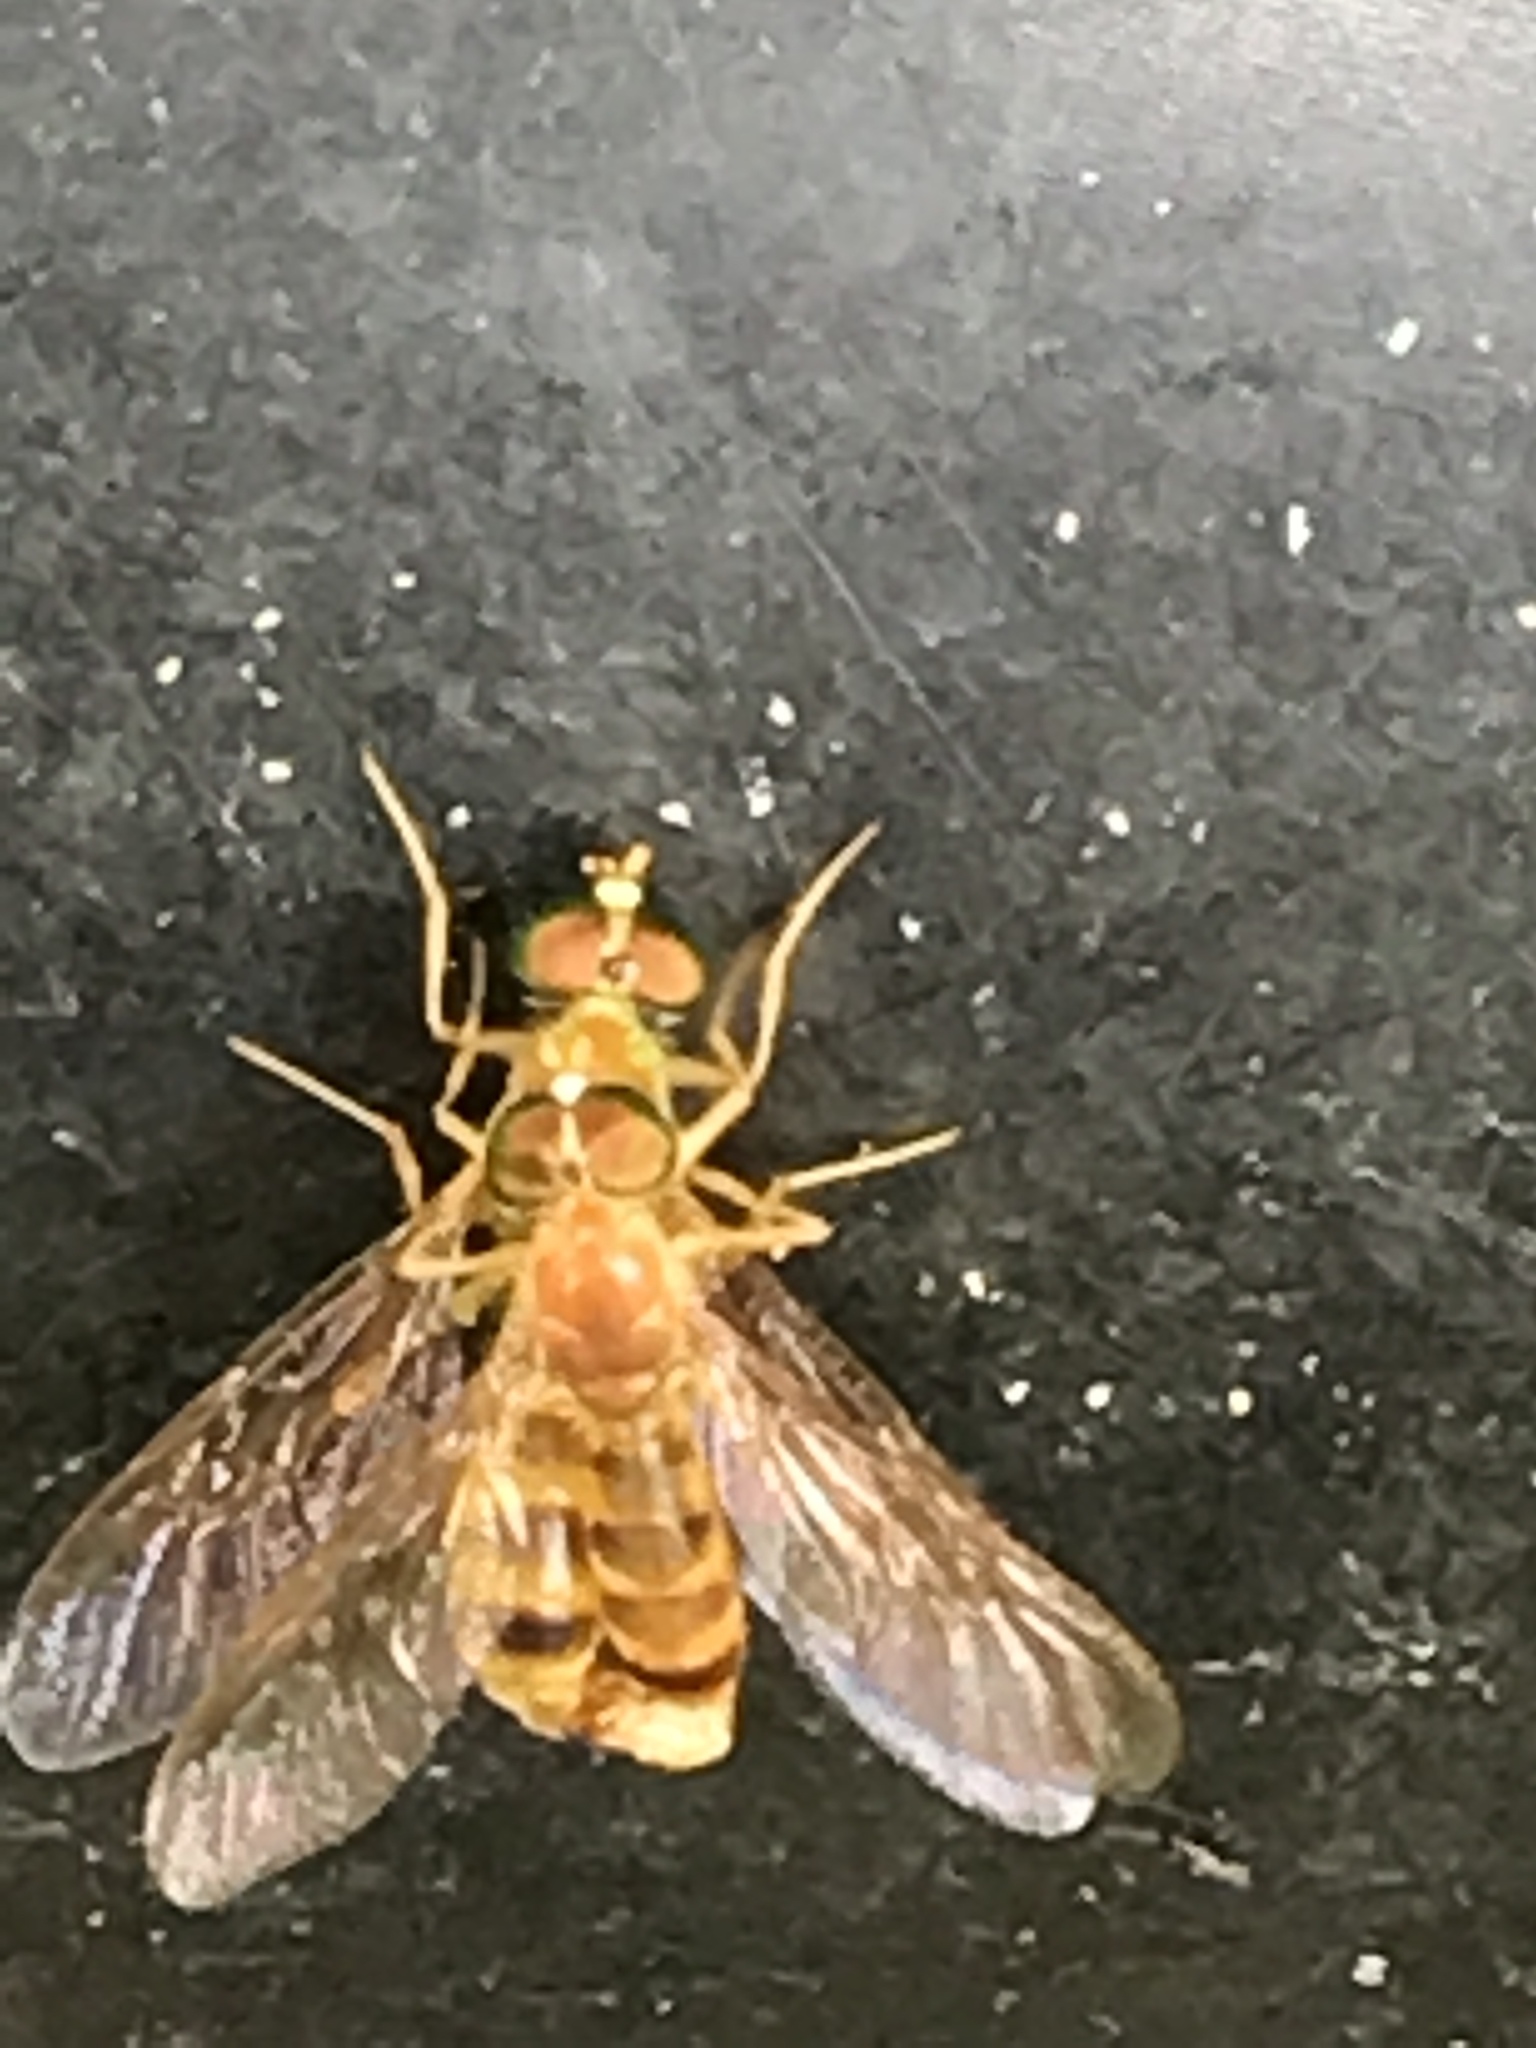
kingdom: Animalia
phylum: Arthropoda
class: Insecta
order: Diptera
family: Stratiomyidae
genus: Ptecticus
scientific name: Ptecticus trivittatus
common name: Compost fly
